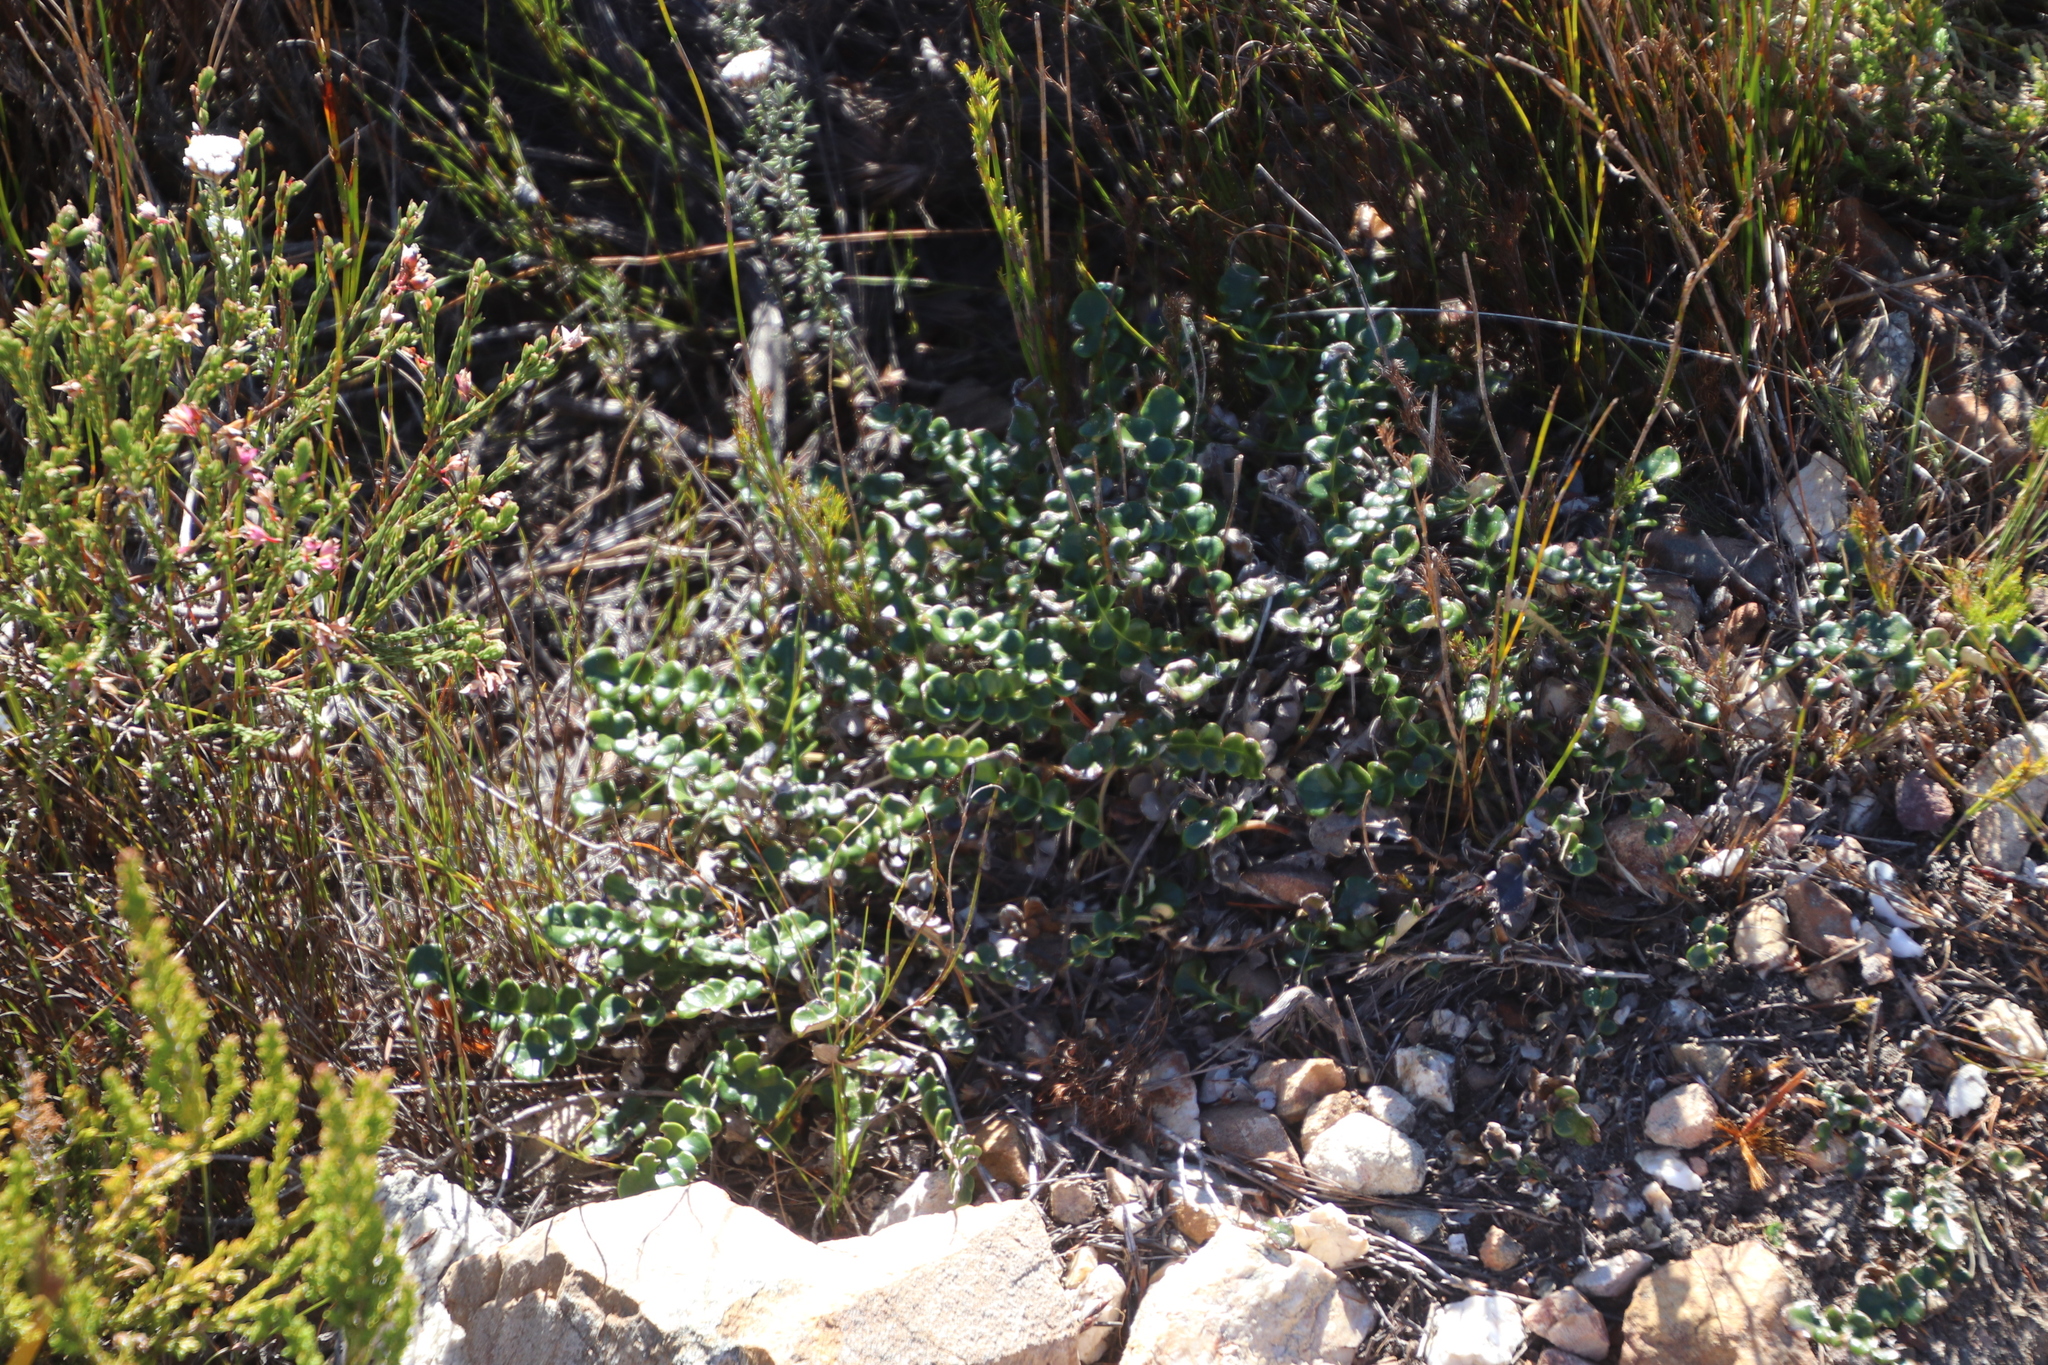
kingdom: Plantae
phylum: Tracheophyta
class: Magnoliopsida
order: Asterales
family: Asteraceae
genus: Gerbera
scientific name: Gerbera linnaei
